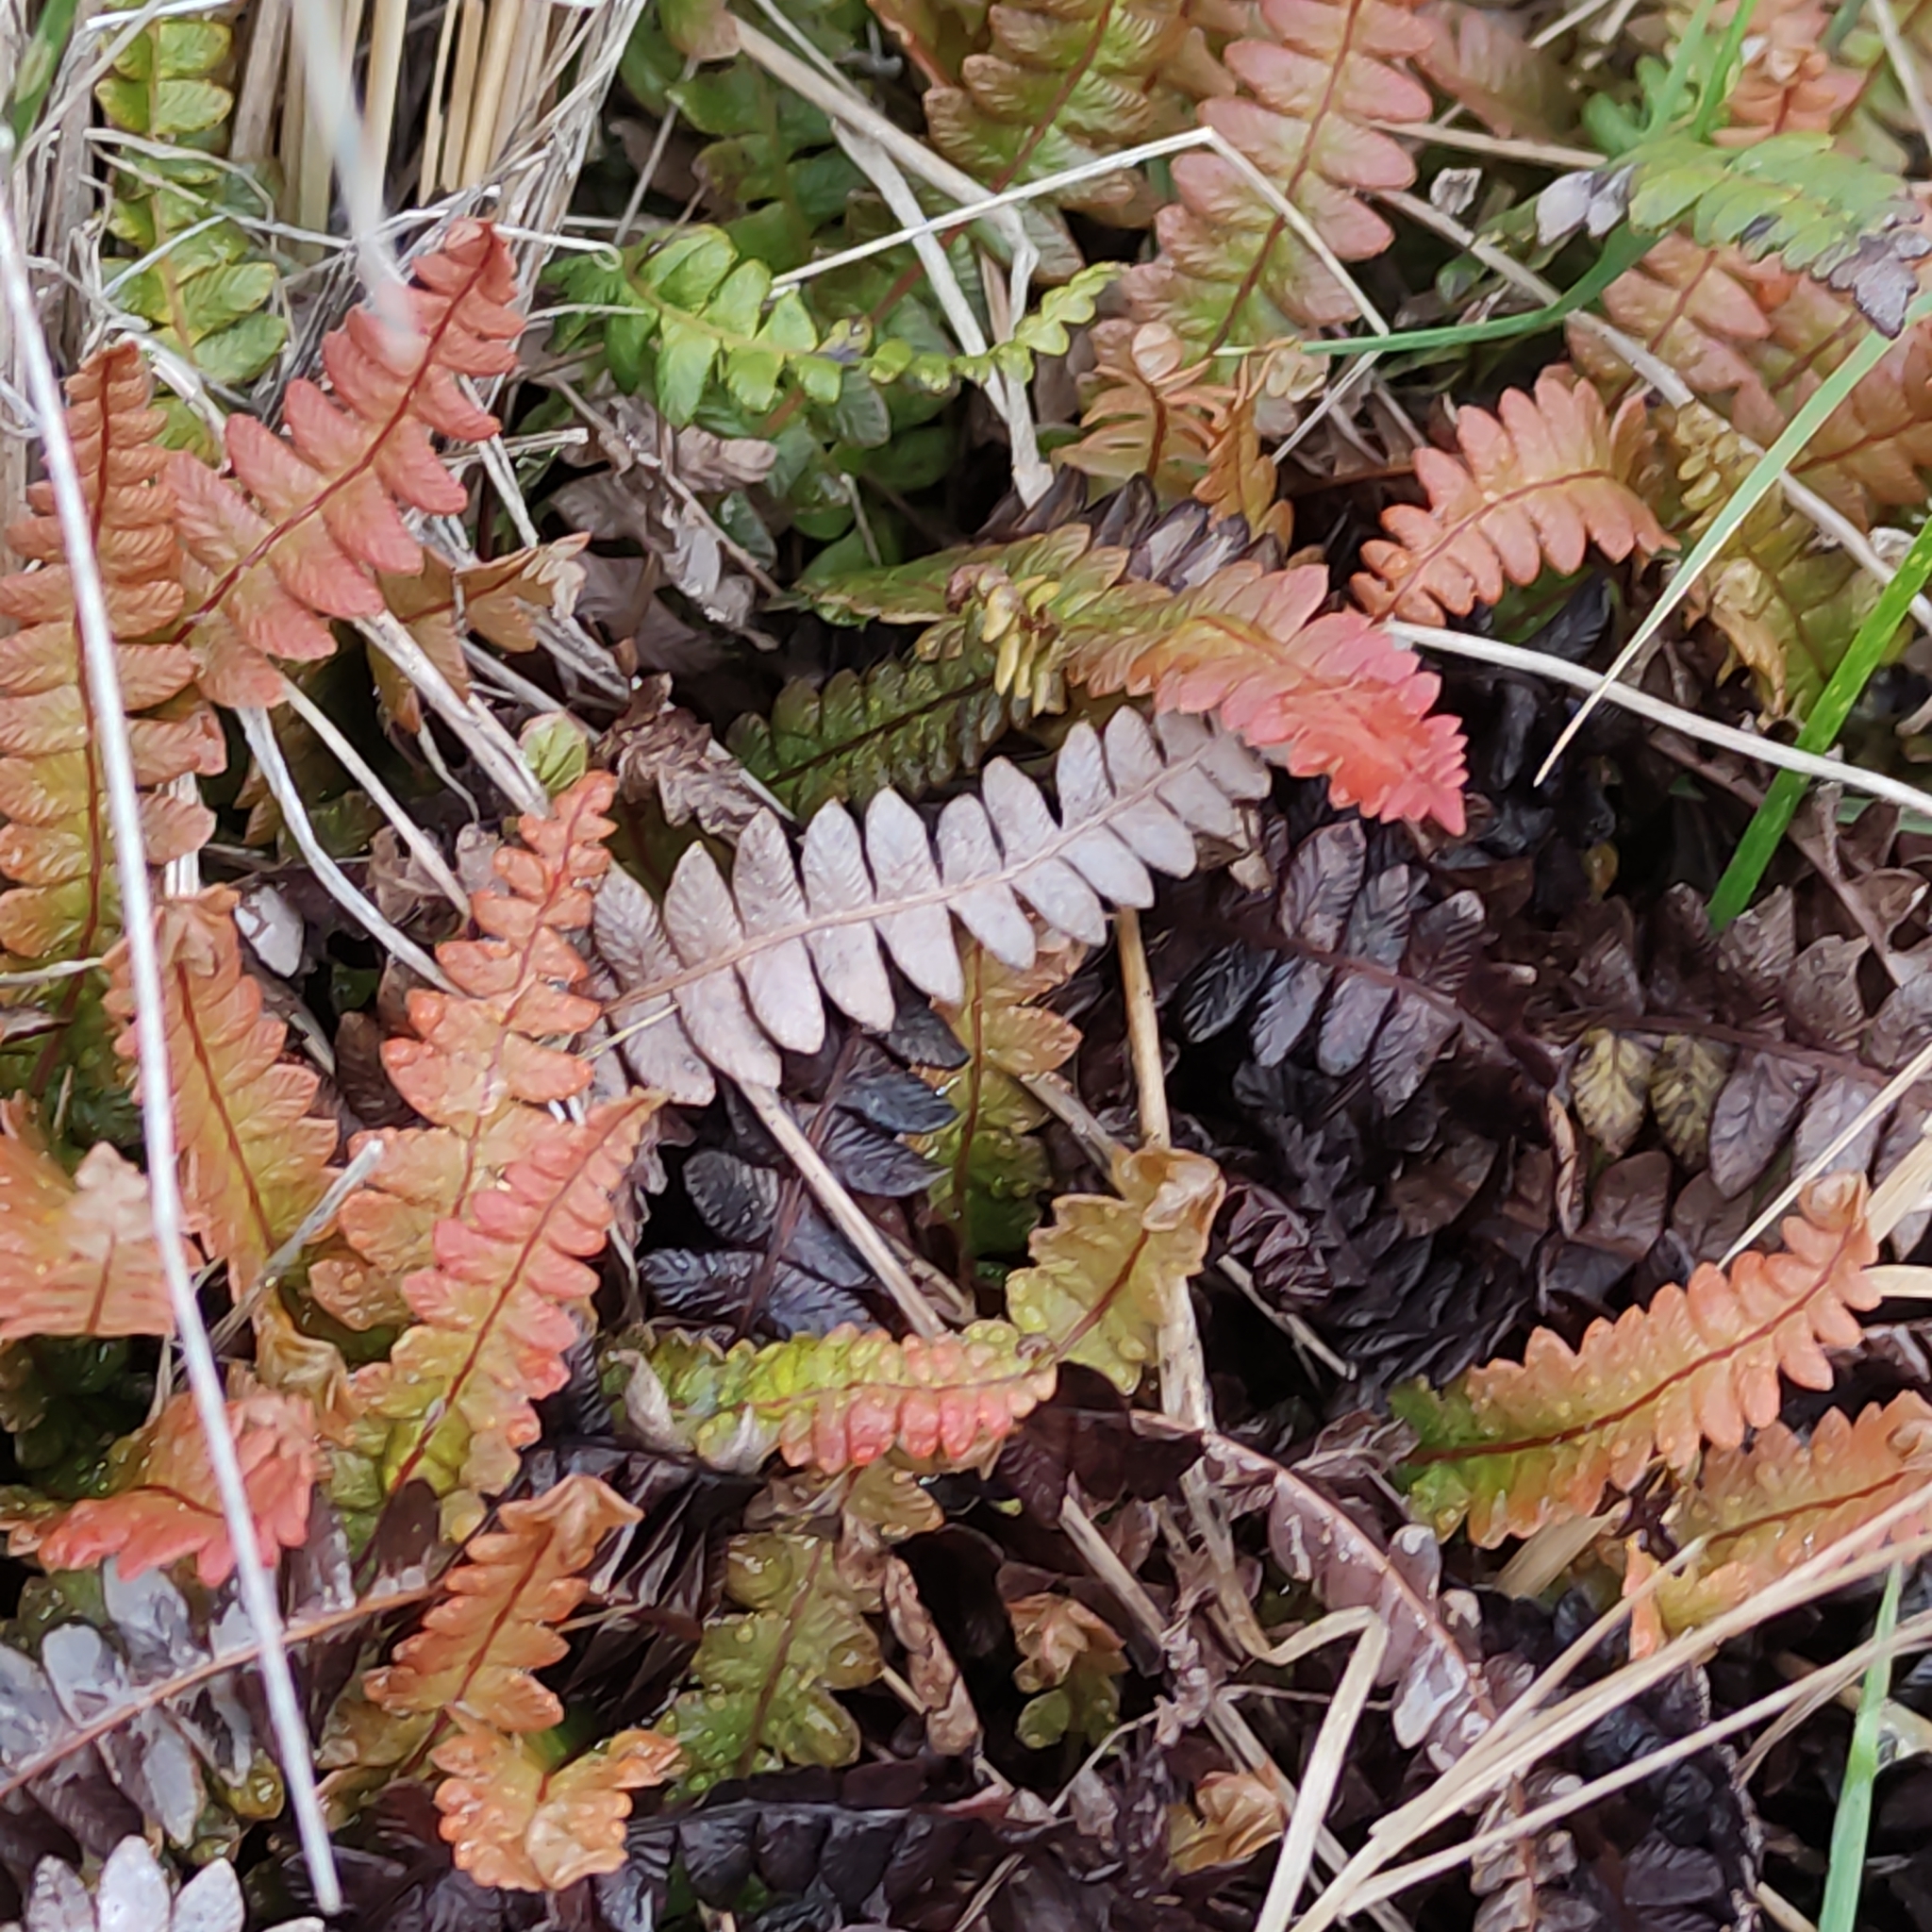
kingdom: Plantae
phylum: Tracheophyta
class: Polypodiopsida
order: Polypodiales
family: Blechnaceae
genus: Austroblechnum
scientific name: Austroblechnum penna-marina
